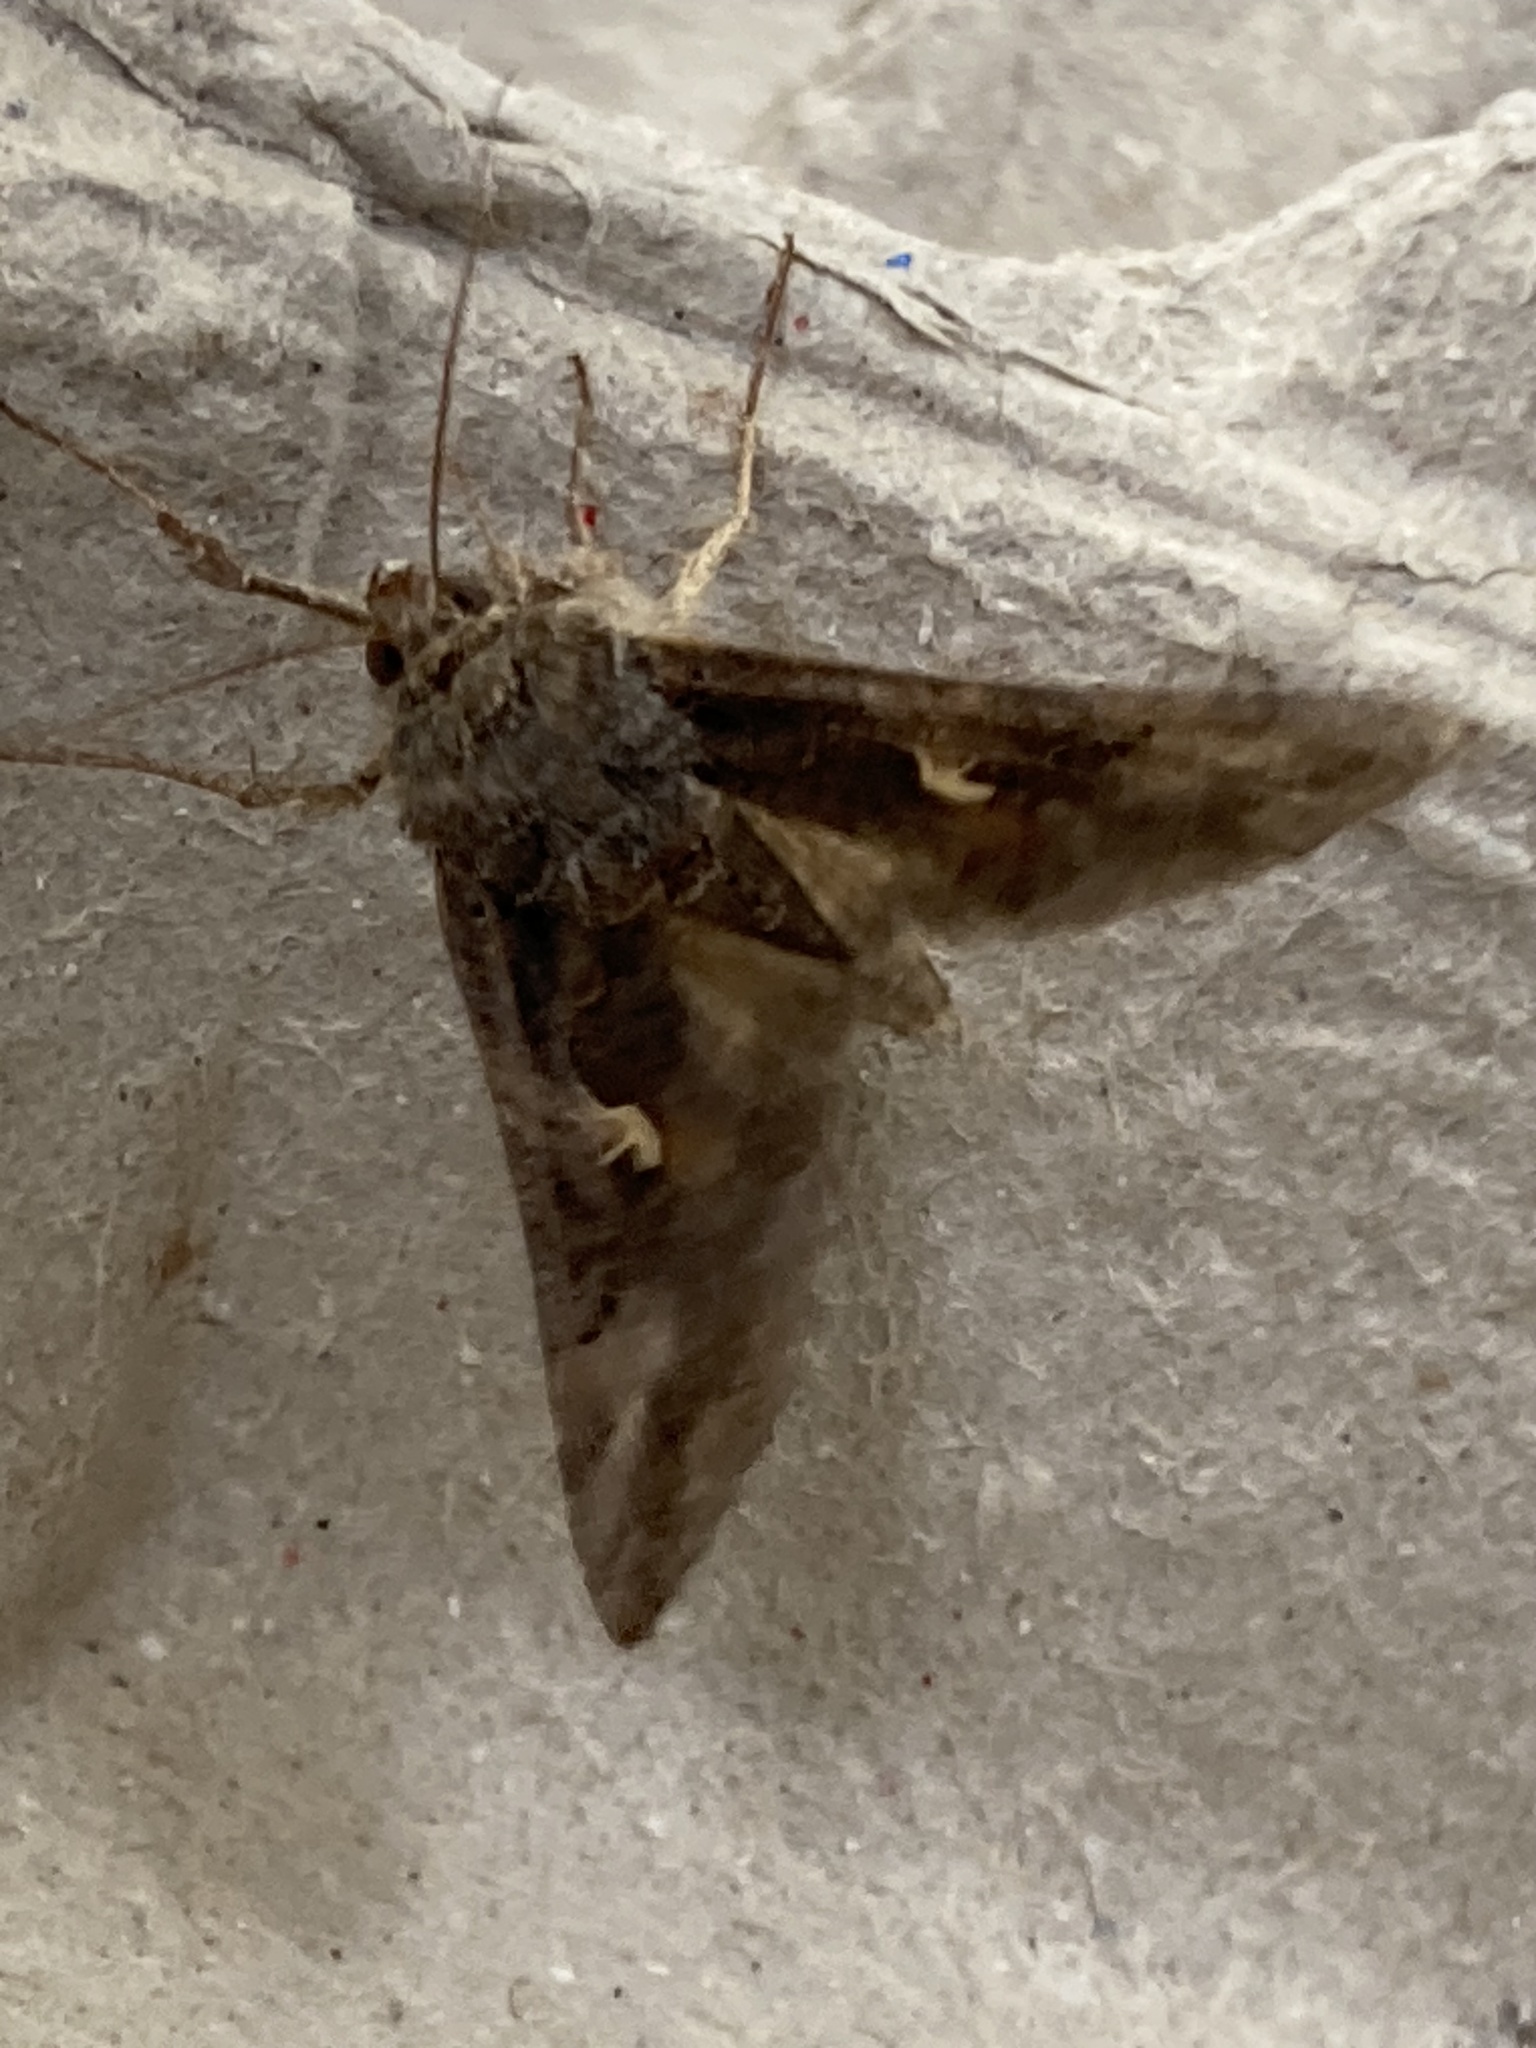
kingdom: Animalia
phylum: Arthropoda
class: Insecta
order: Lepidoptera
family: Noctuidae
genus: Autographa
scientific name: Autographa gamma
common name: Silver y
